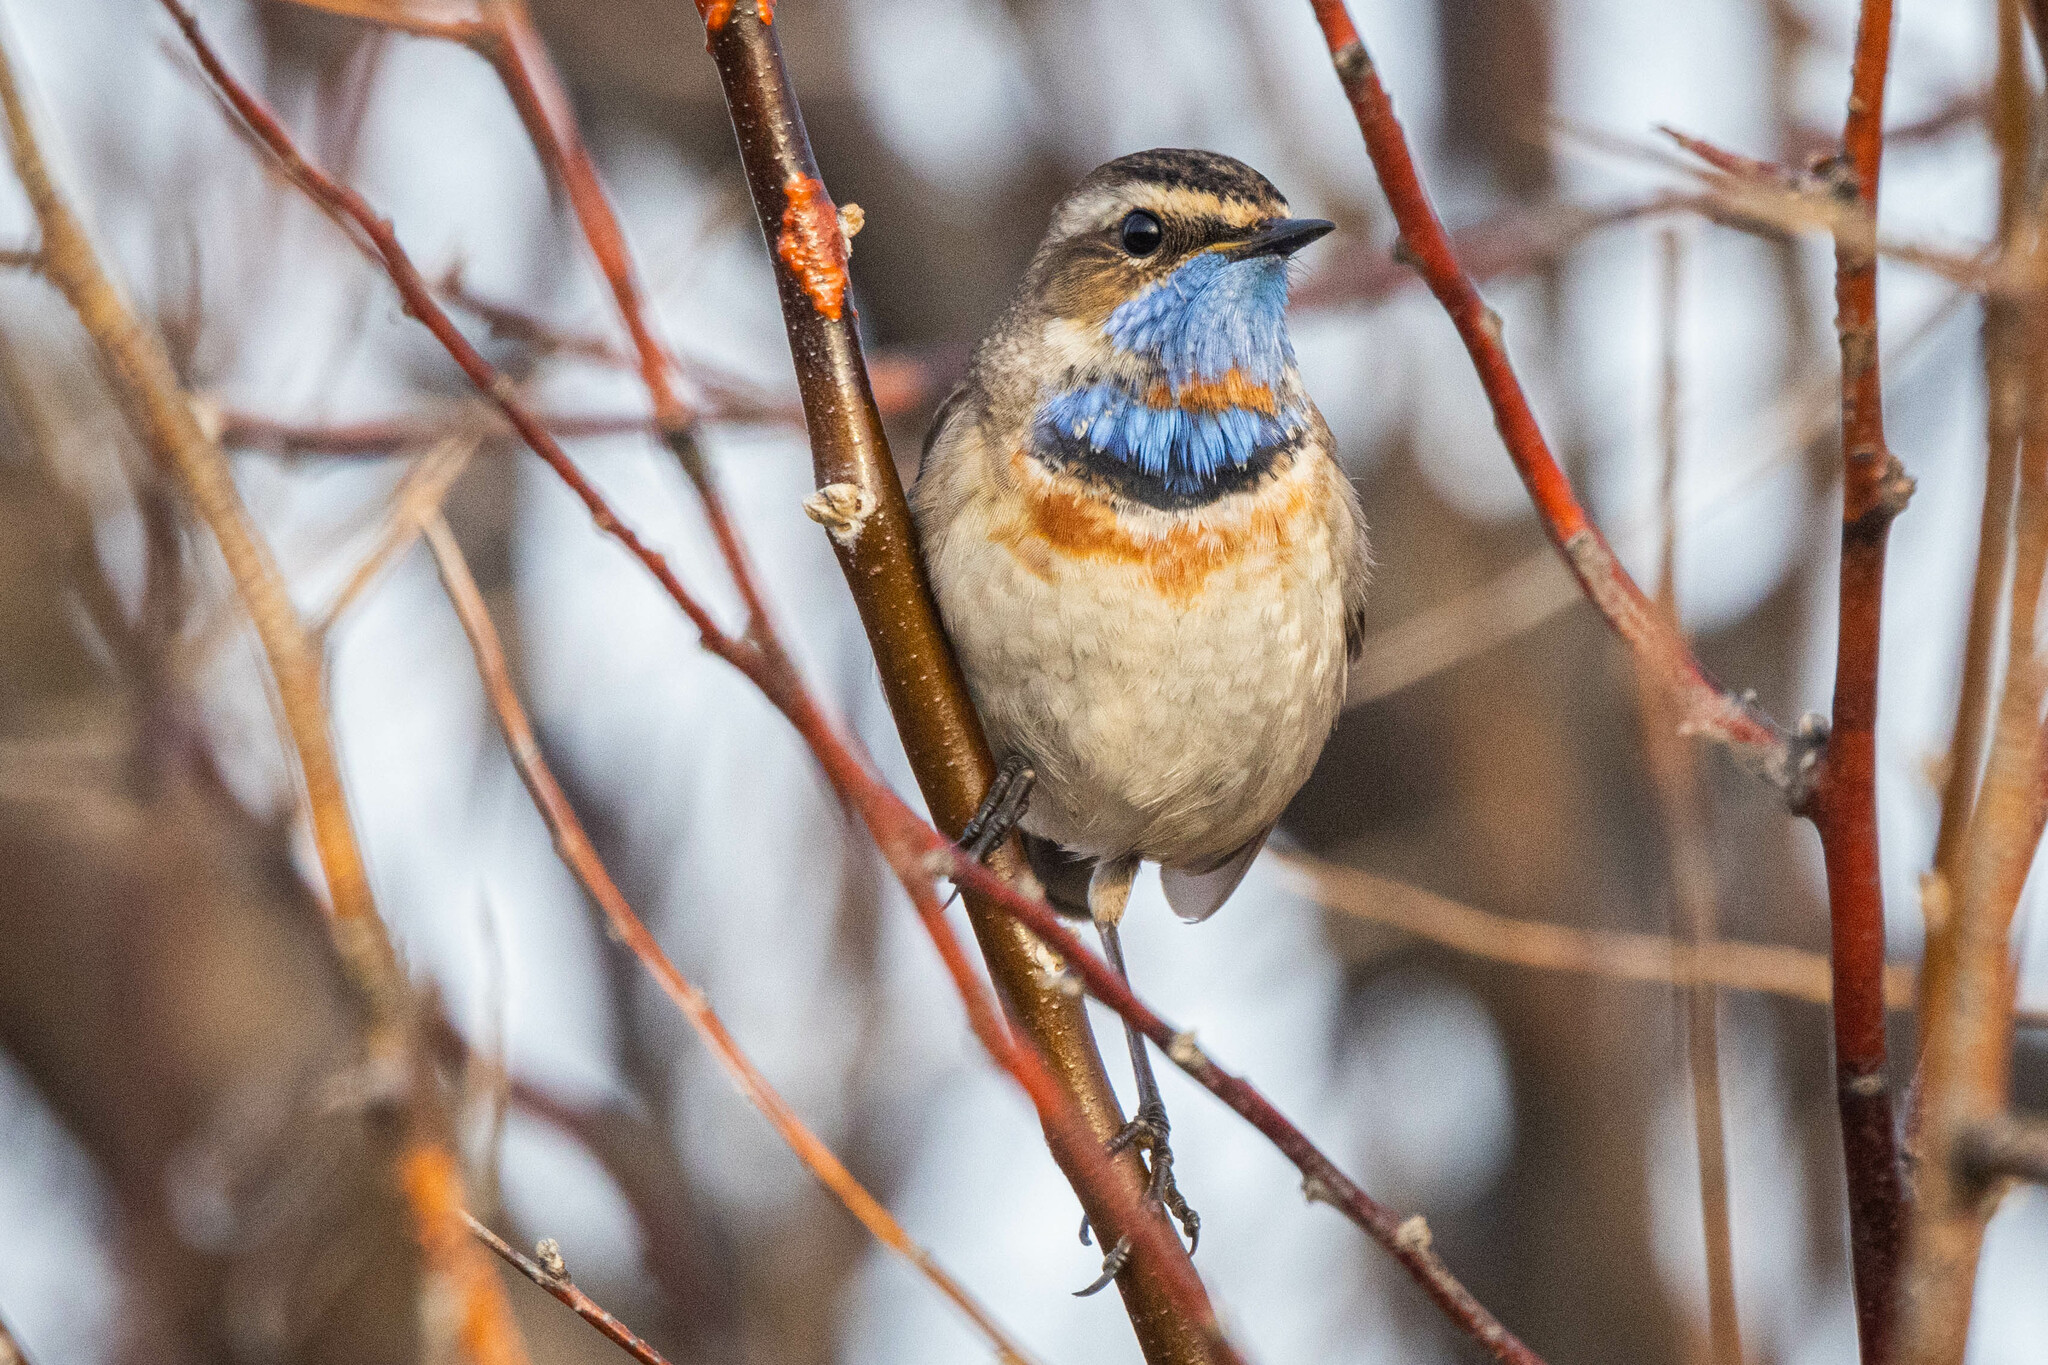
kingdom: Animalia
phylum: Chordata
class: Aves
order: Passeriformes
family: Muscicapidae
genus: Luscinia
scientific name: Luscinia svecica
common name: Bluethroat
